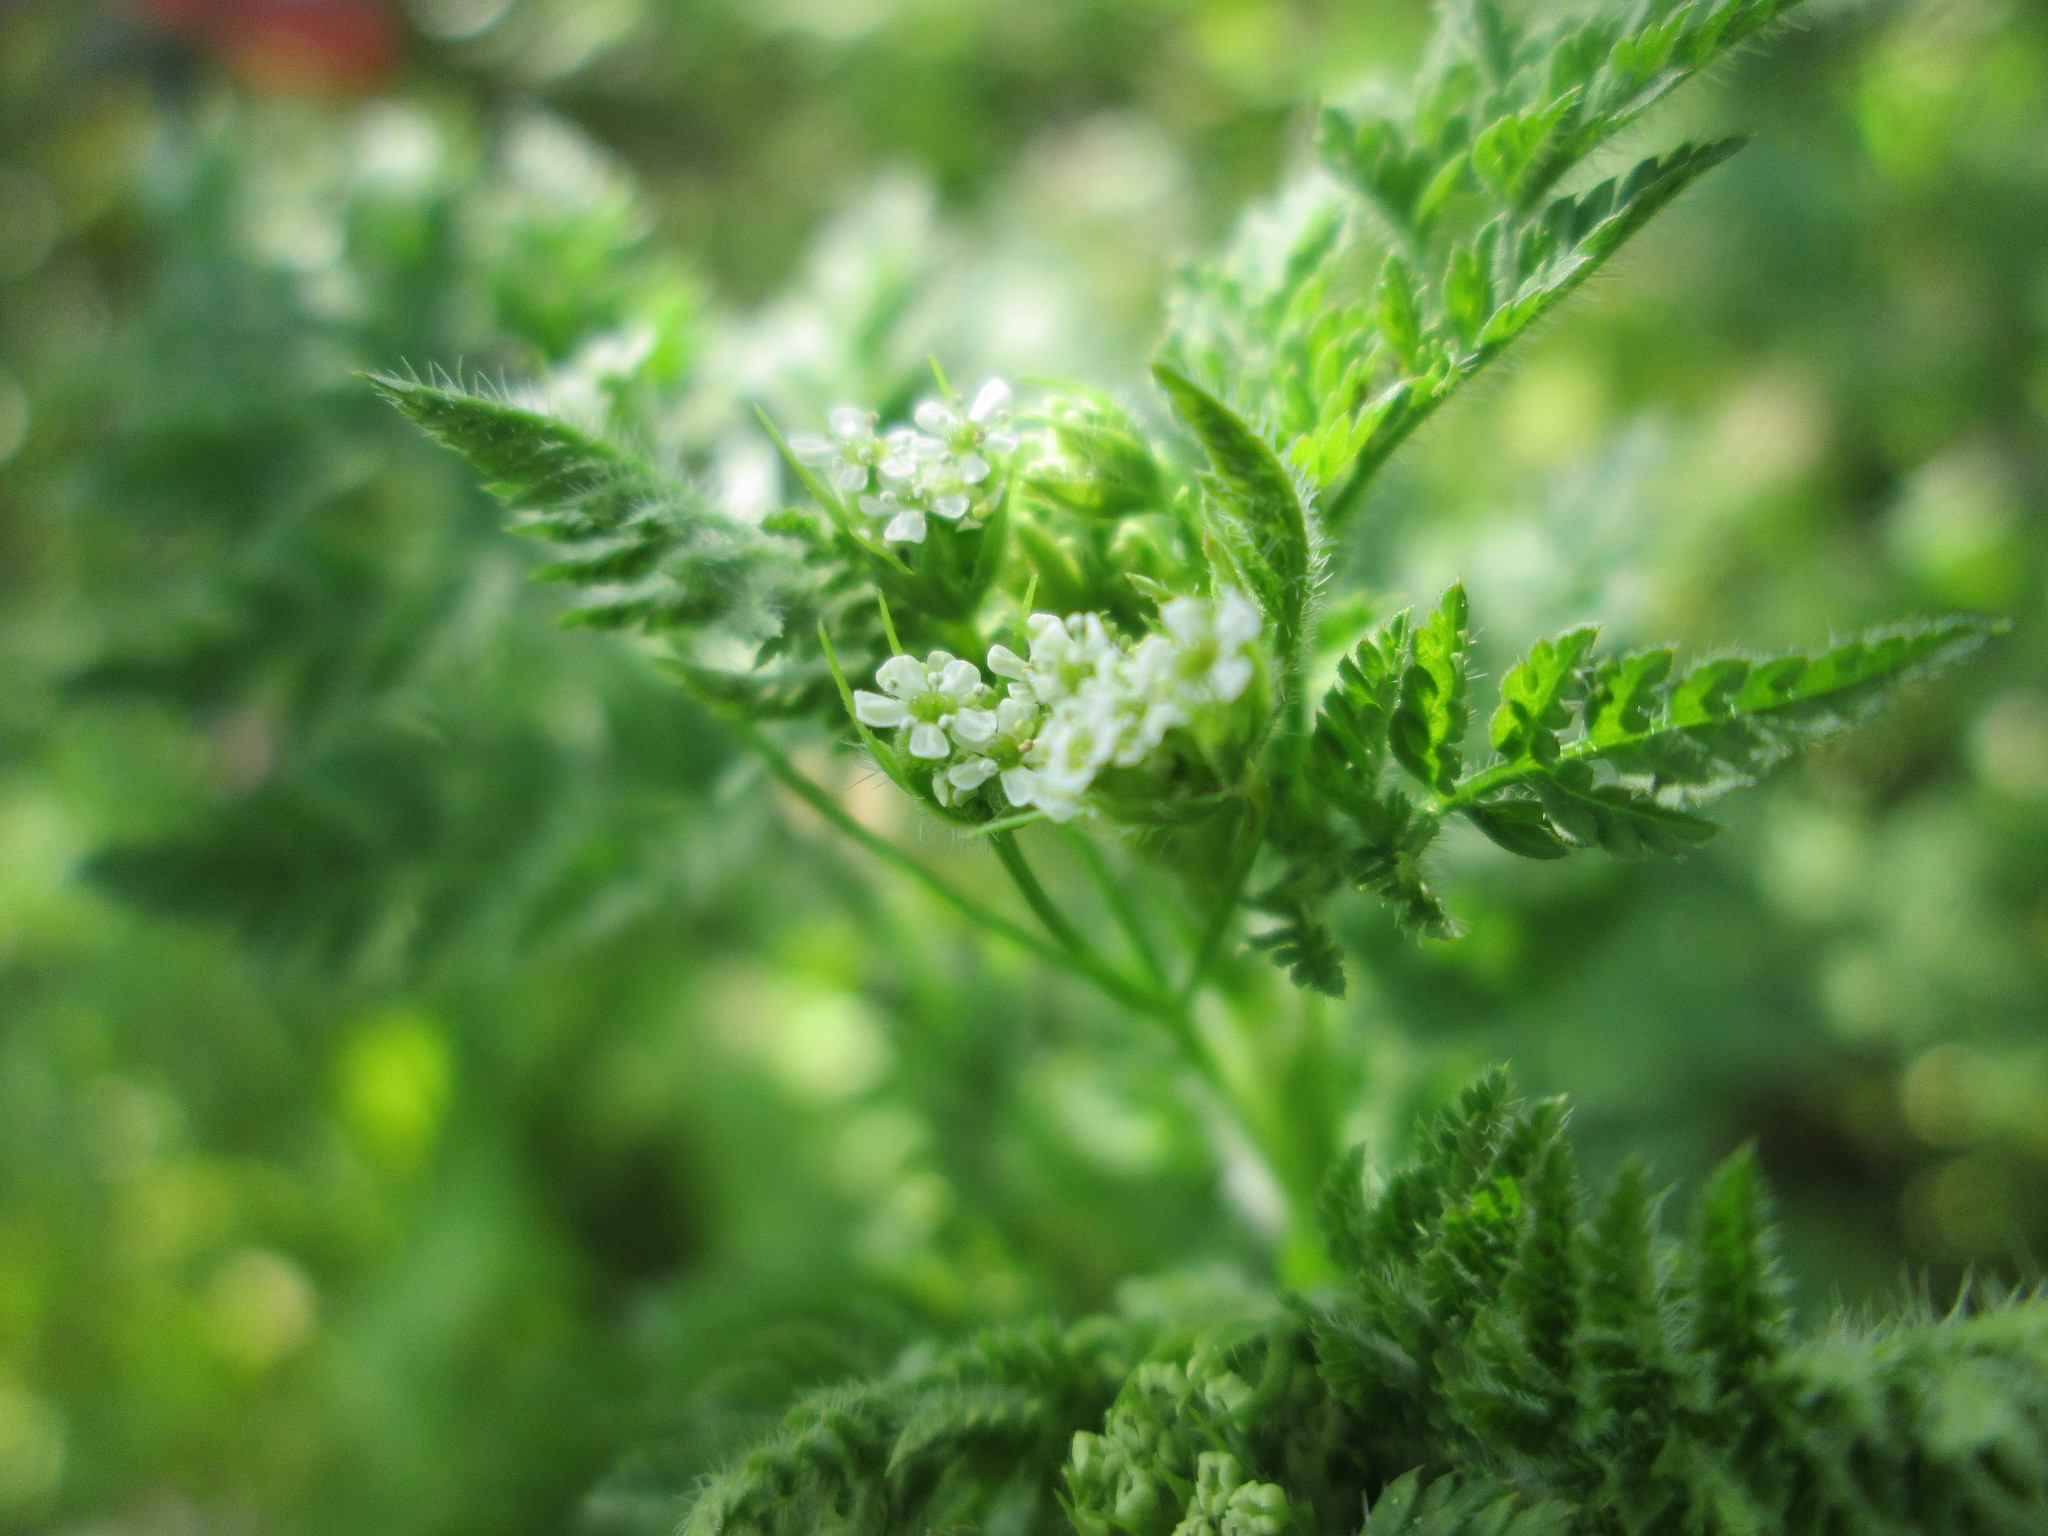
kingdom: Plantae
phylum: Tracheophyta
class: Magnoliopsida
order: Apiales
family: Apiaceae
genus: Anthriscus
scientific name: Anthriscus sylvestris
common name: Cow parsley
